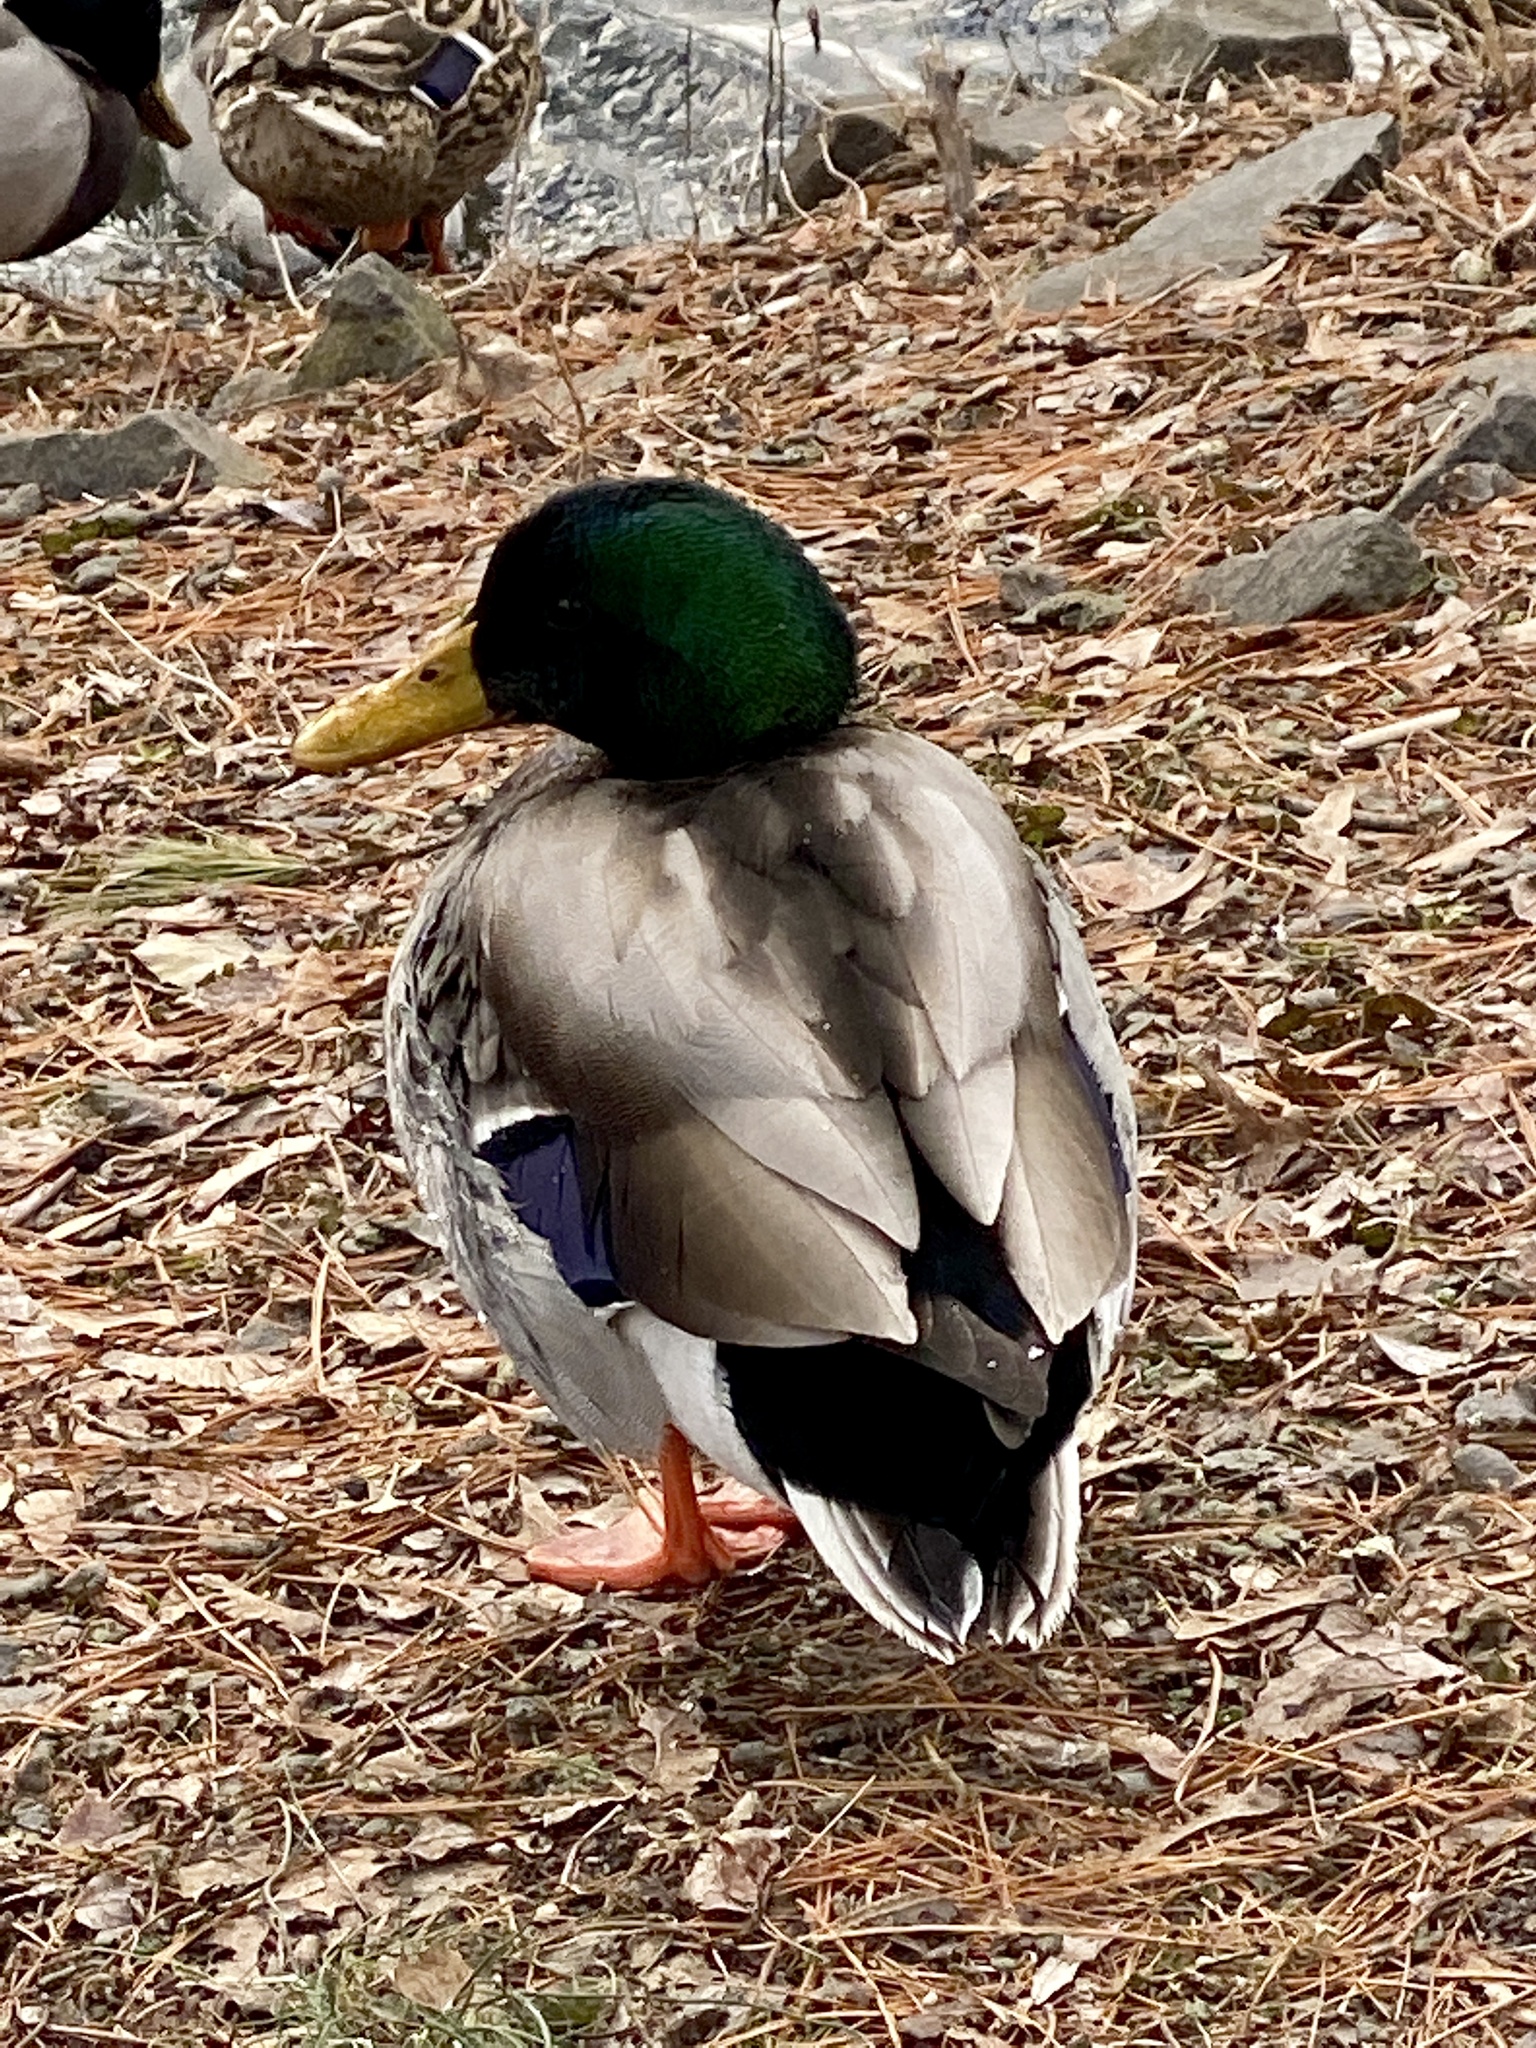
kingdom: Animalia
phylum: Chordata
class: Aves
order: Anseriformes
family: Anatidae
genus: Anas
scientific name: Anas platyrhynchos
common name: Mallard
